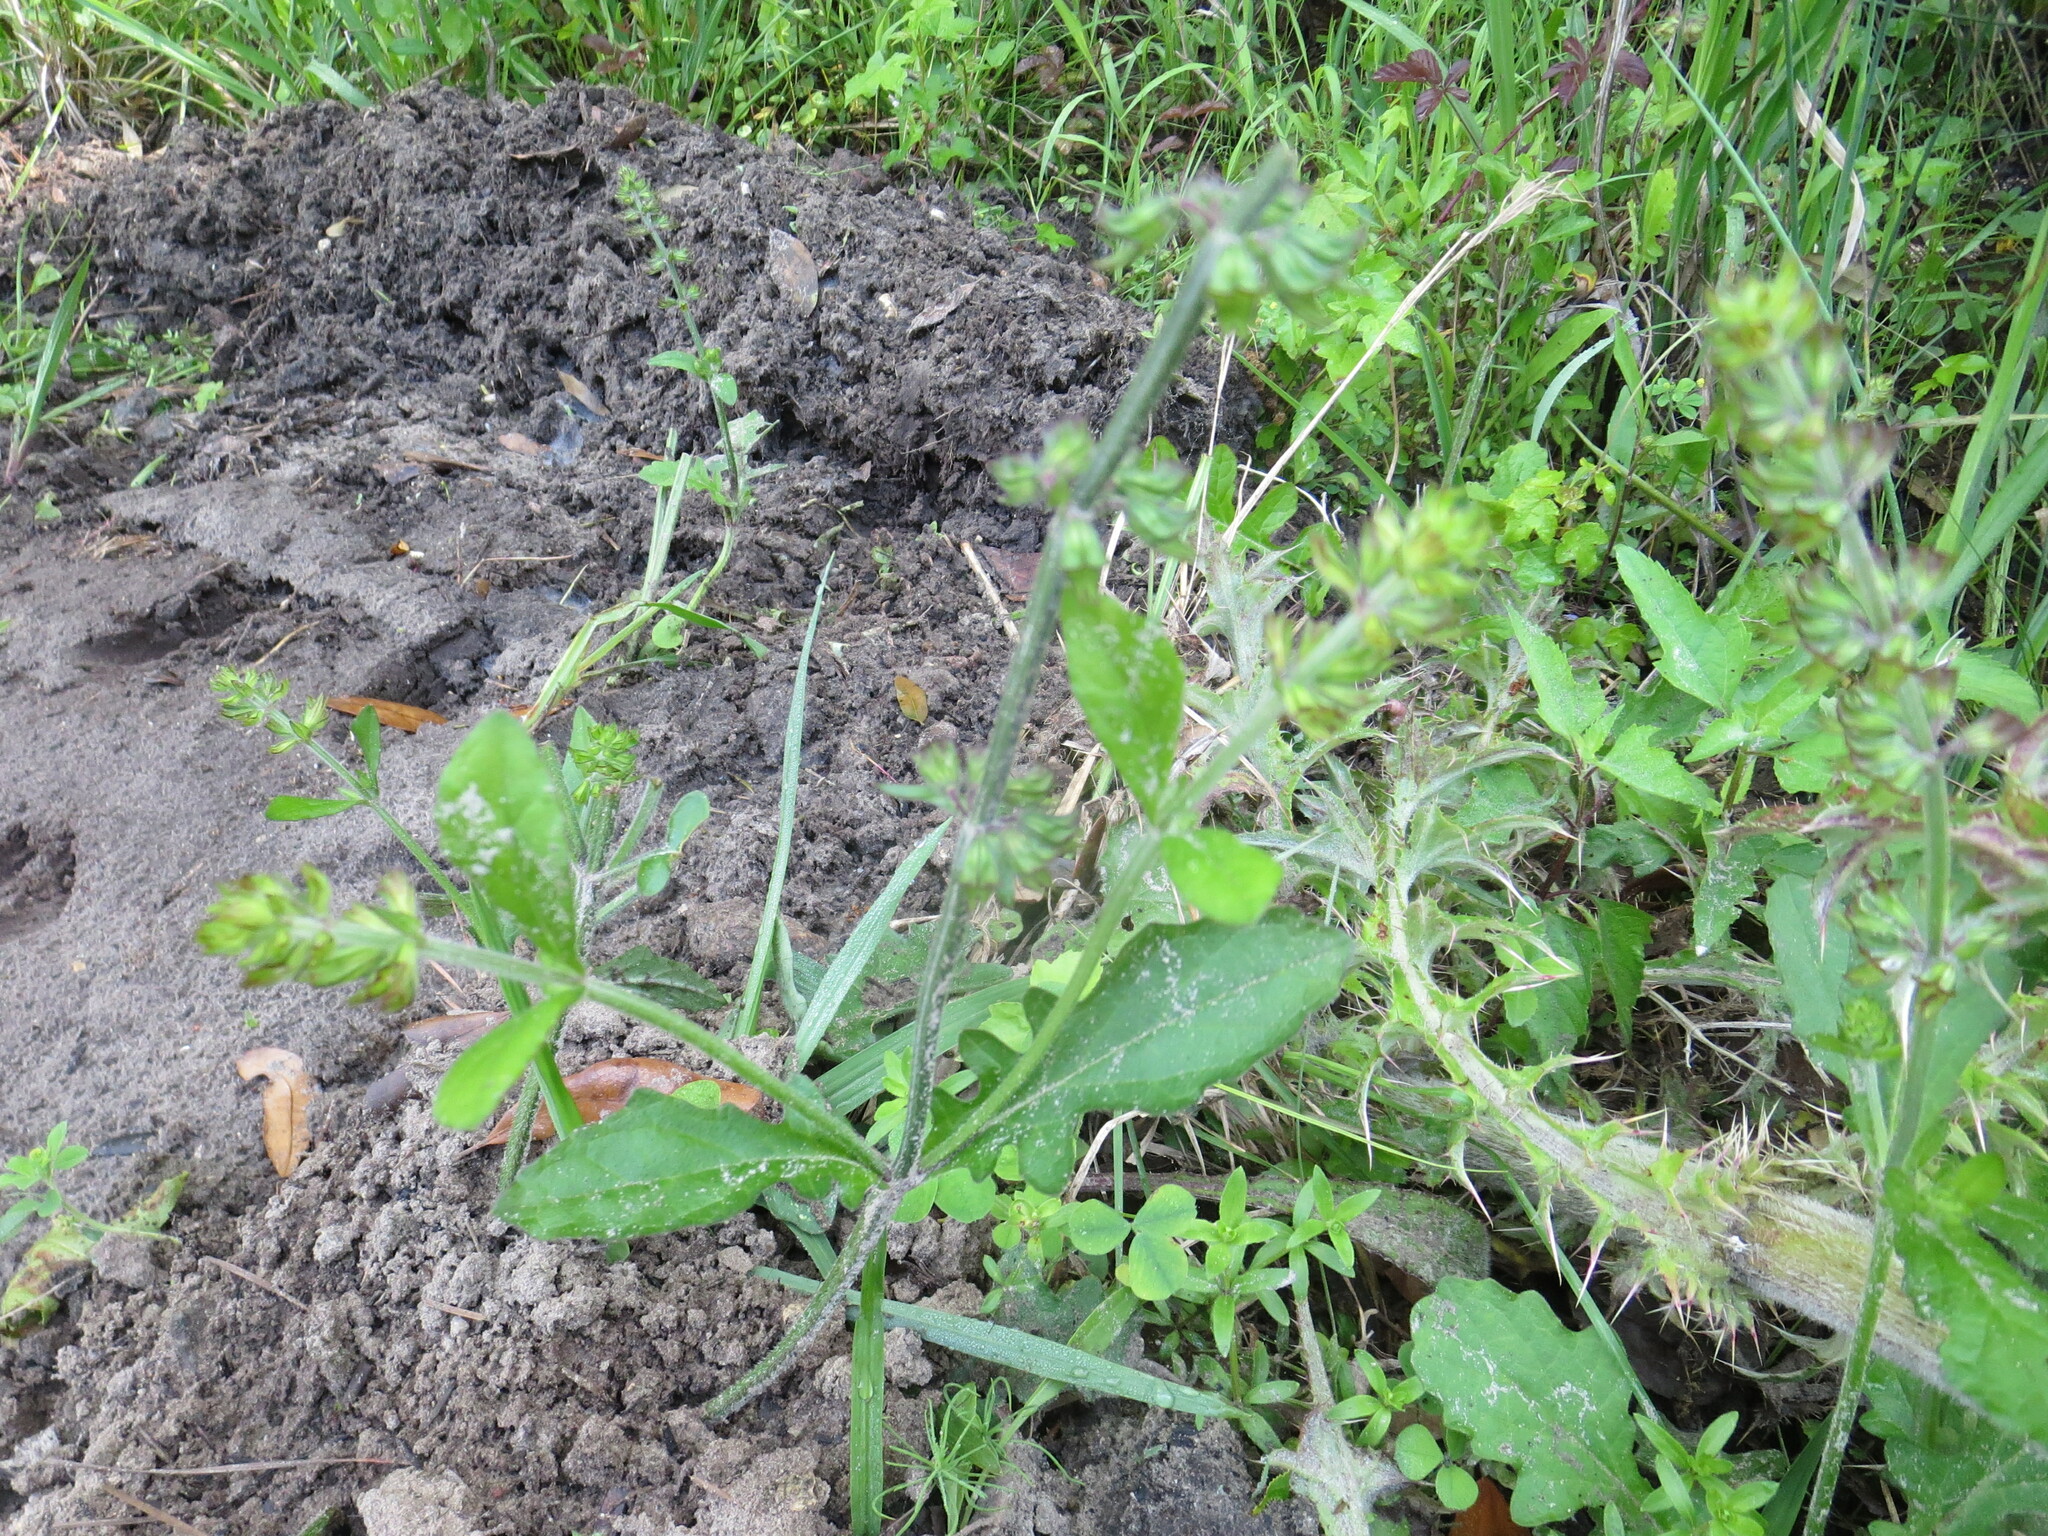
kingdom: Plantae
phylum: Tracheophyta
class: Magnoliopsida
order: Lamiales
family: Lamiaceae
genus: Salvia
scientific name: Salvia lyrata
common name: Cancerweed
